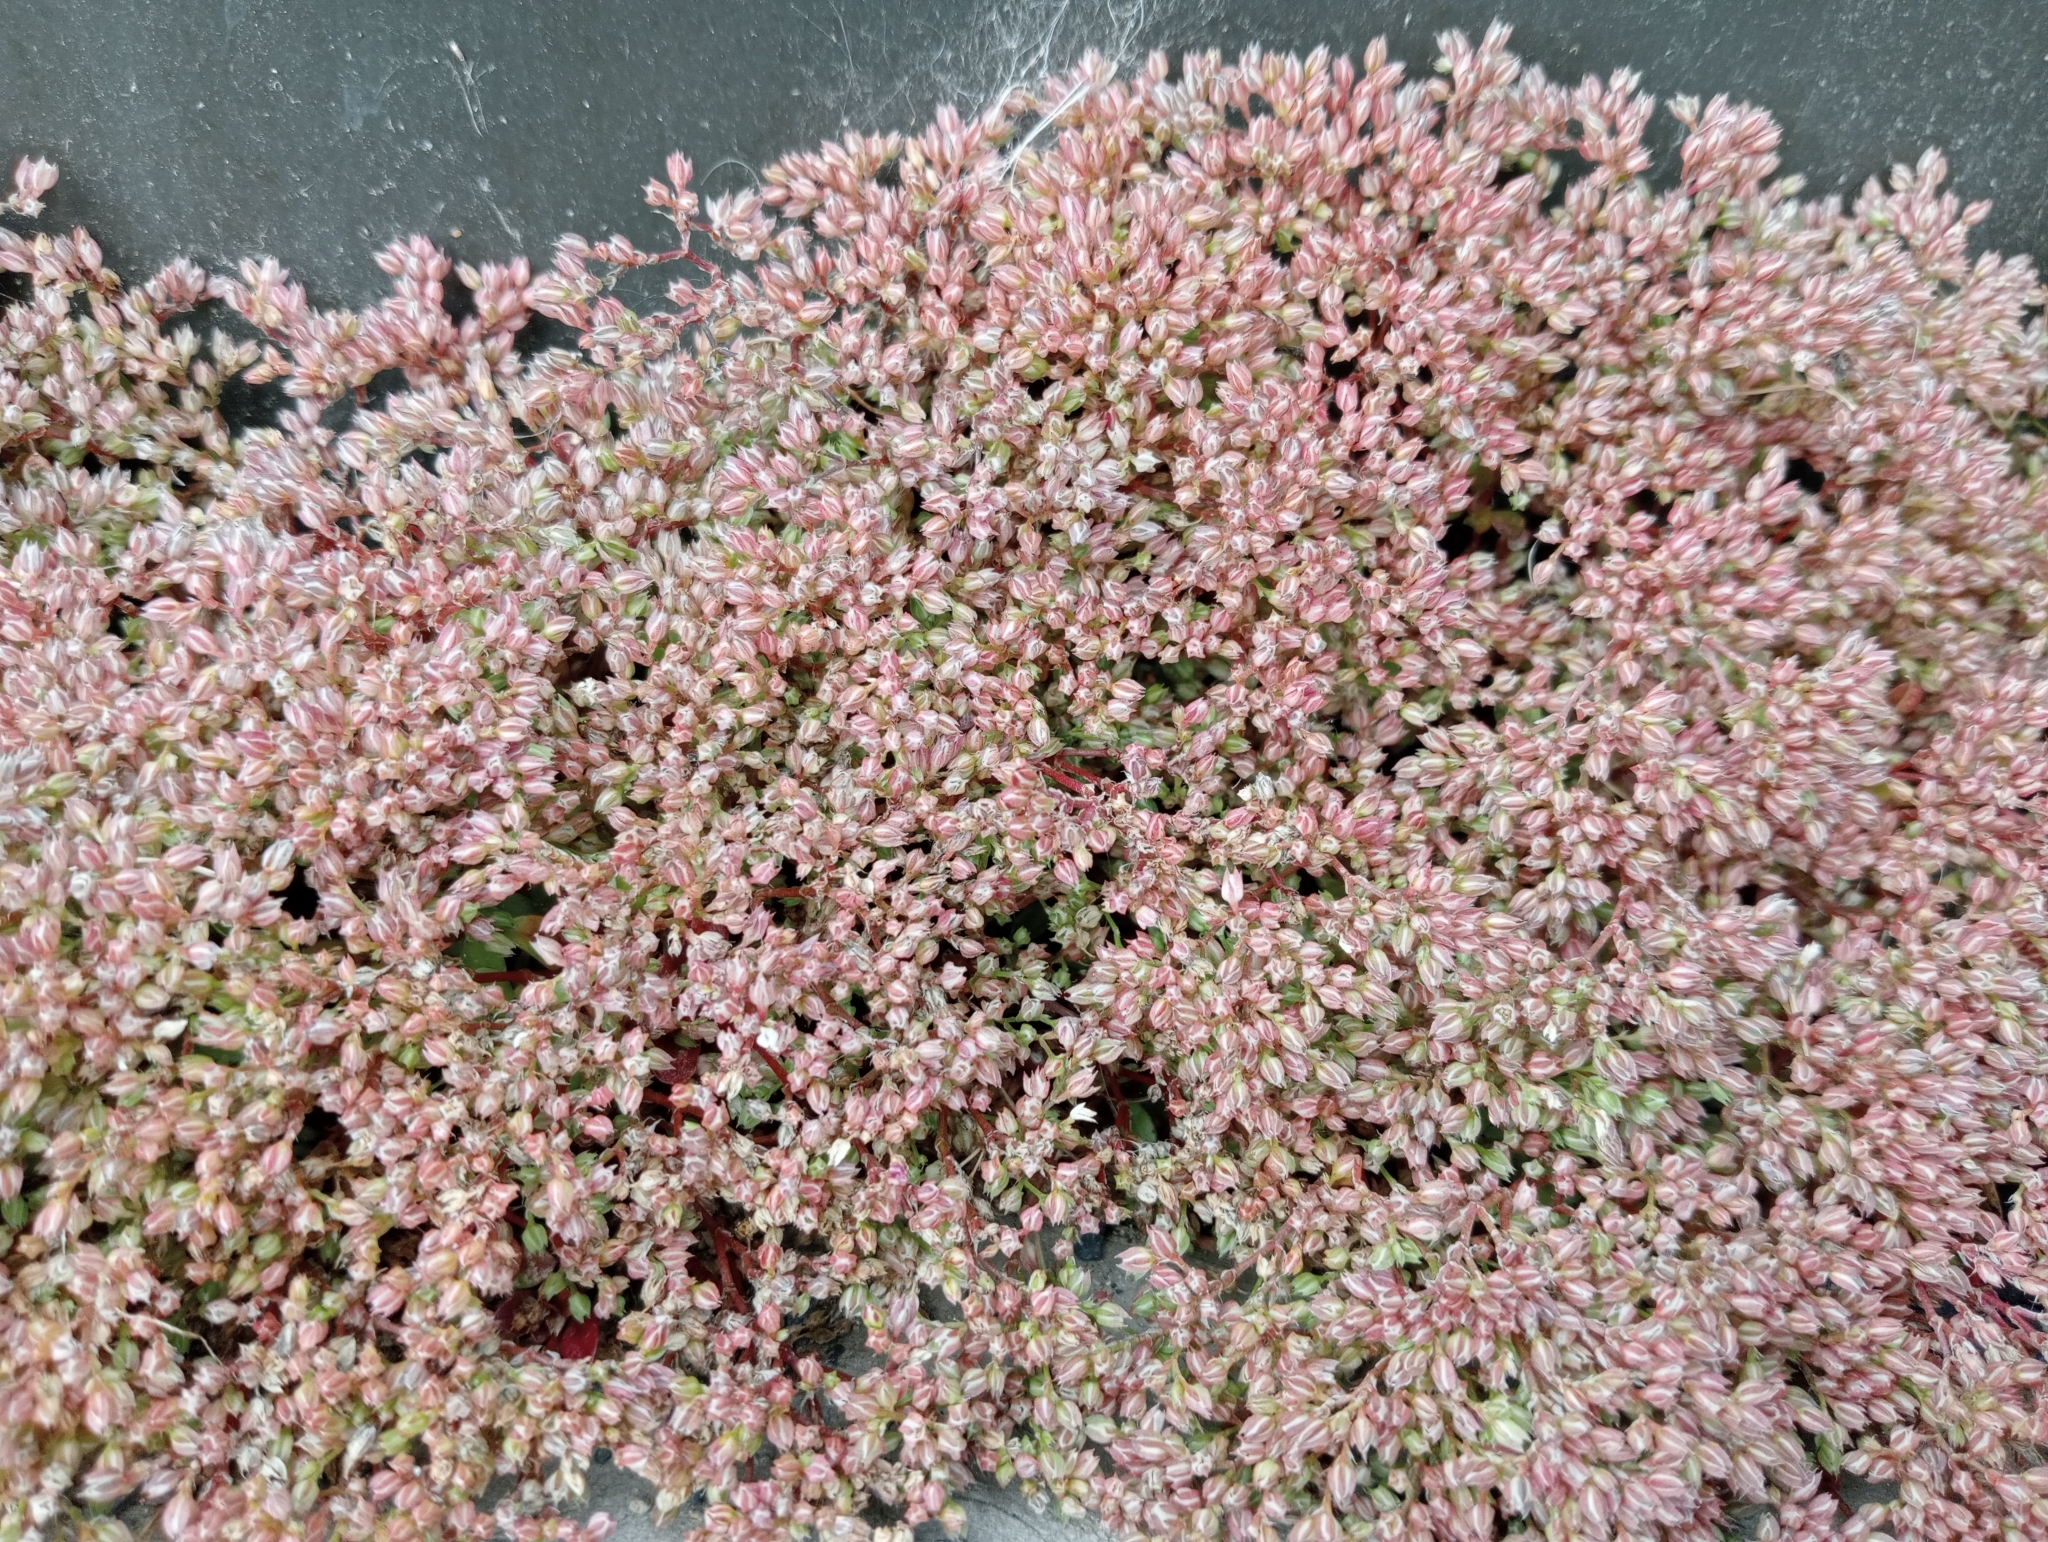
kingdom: Plantae
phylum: Tracheophyta
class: Magnoliopsida
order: Caryophyllales
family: Caryophyllaceae
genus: Polycarpon
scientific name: Polycarpon tetraphyllum
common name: Four-leaved all-seed
